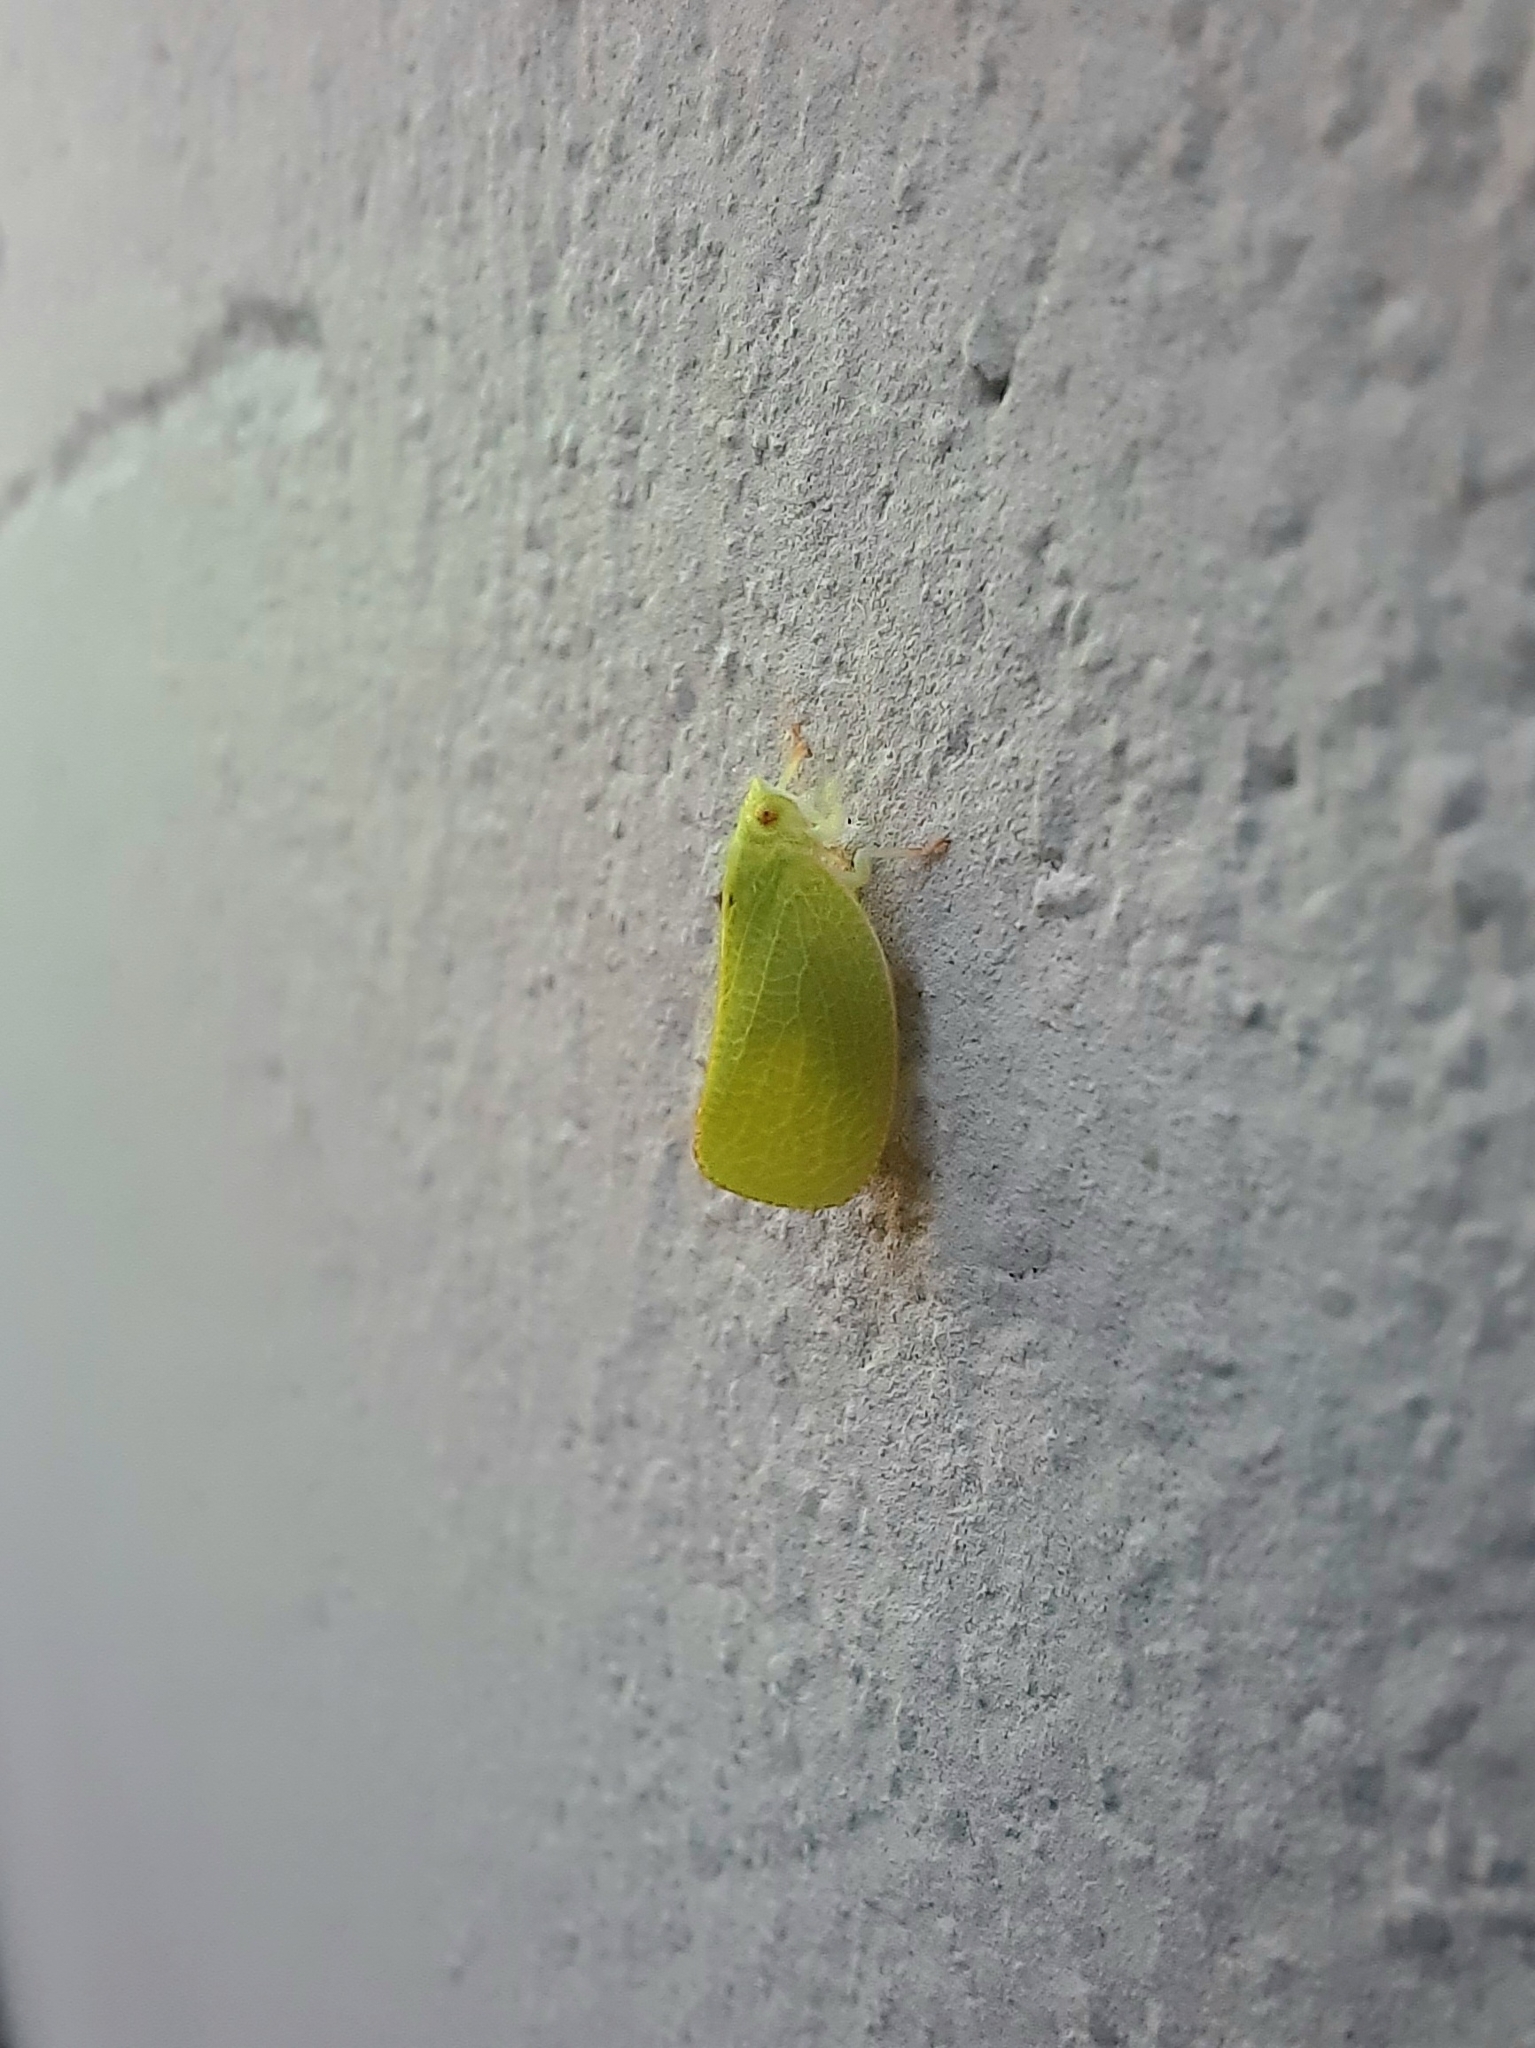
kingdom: Animalia
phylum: Arthropoda
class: Insecta
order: Hemiptera
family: Acanaloniidae
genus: Acanalonia
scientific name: Acanalonia conica
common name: Green cone-headed planthopper
